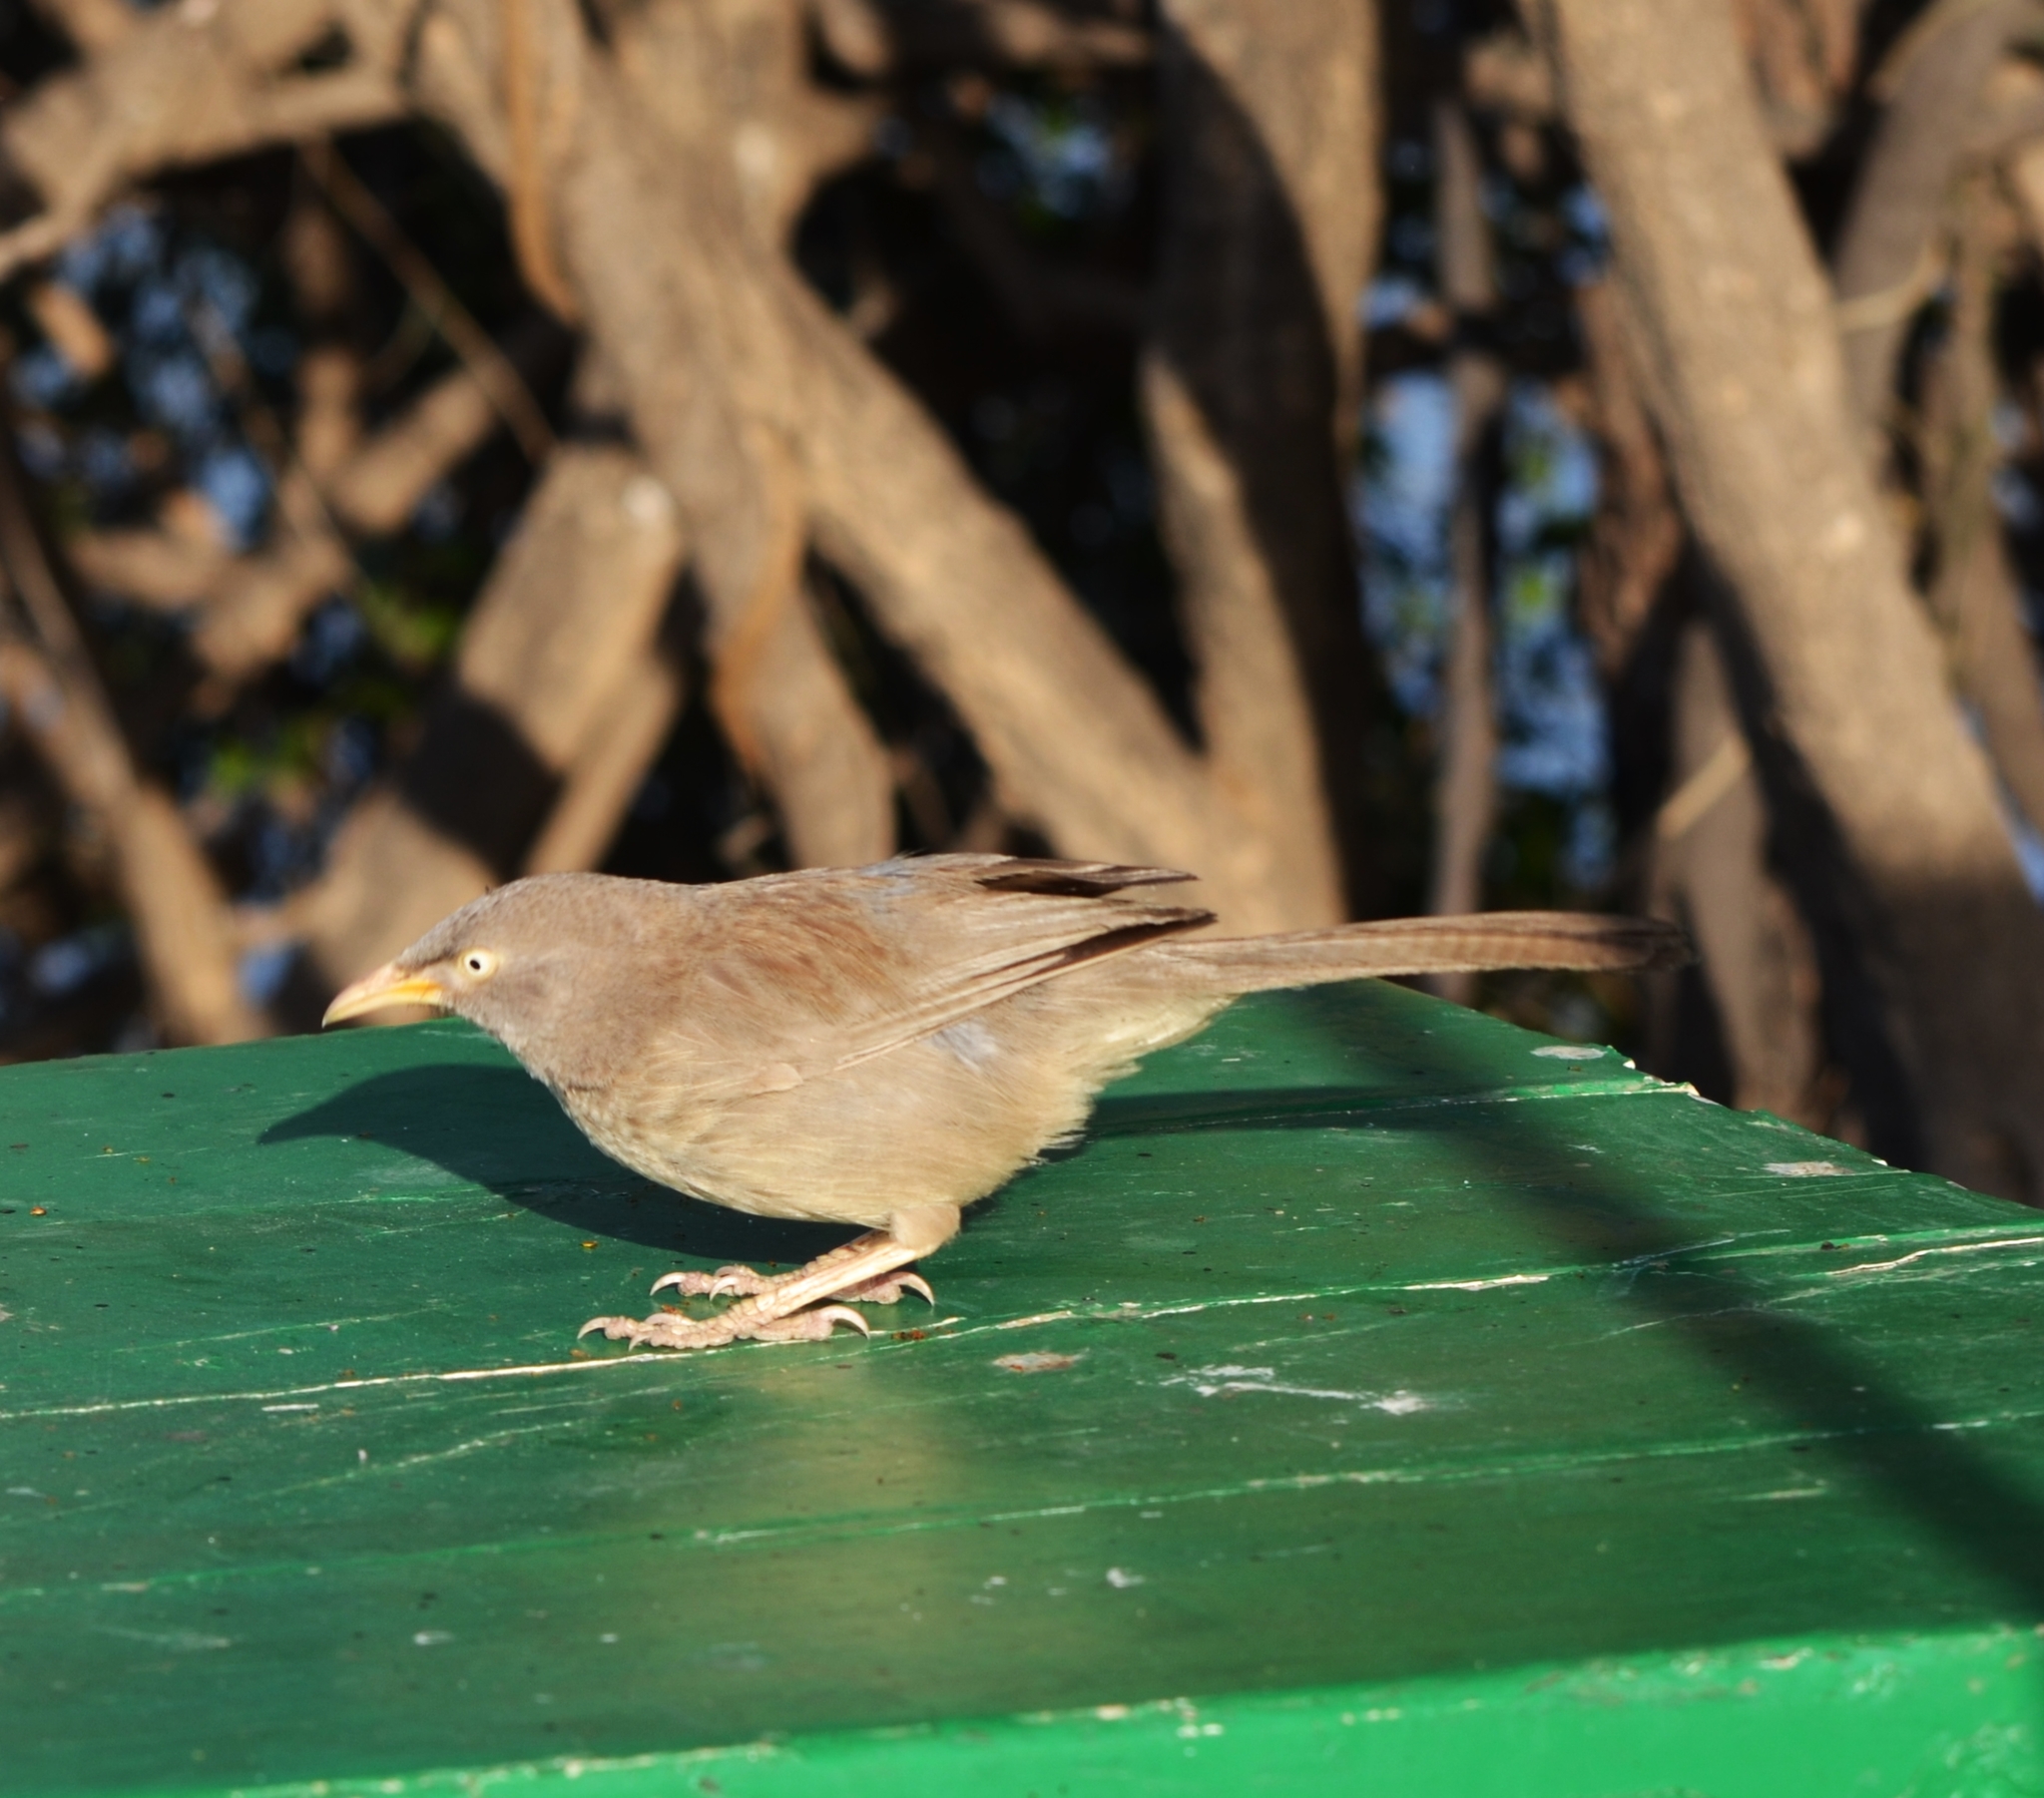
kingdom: Animalia
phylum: Chordata
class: Aves
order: Passeriformes
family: Leiothrichidae
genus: Turdoides
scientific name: Turdoides striata
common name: Jungle babbler
